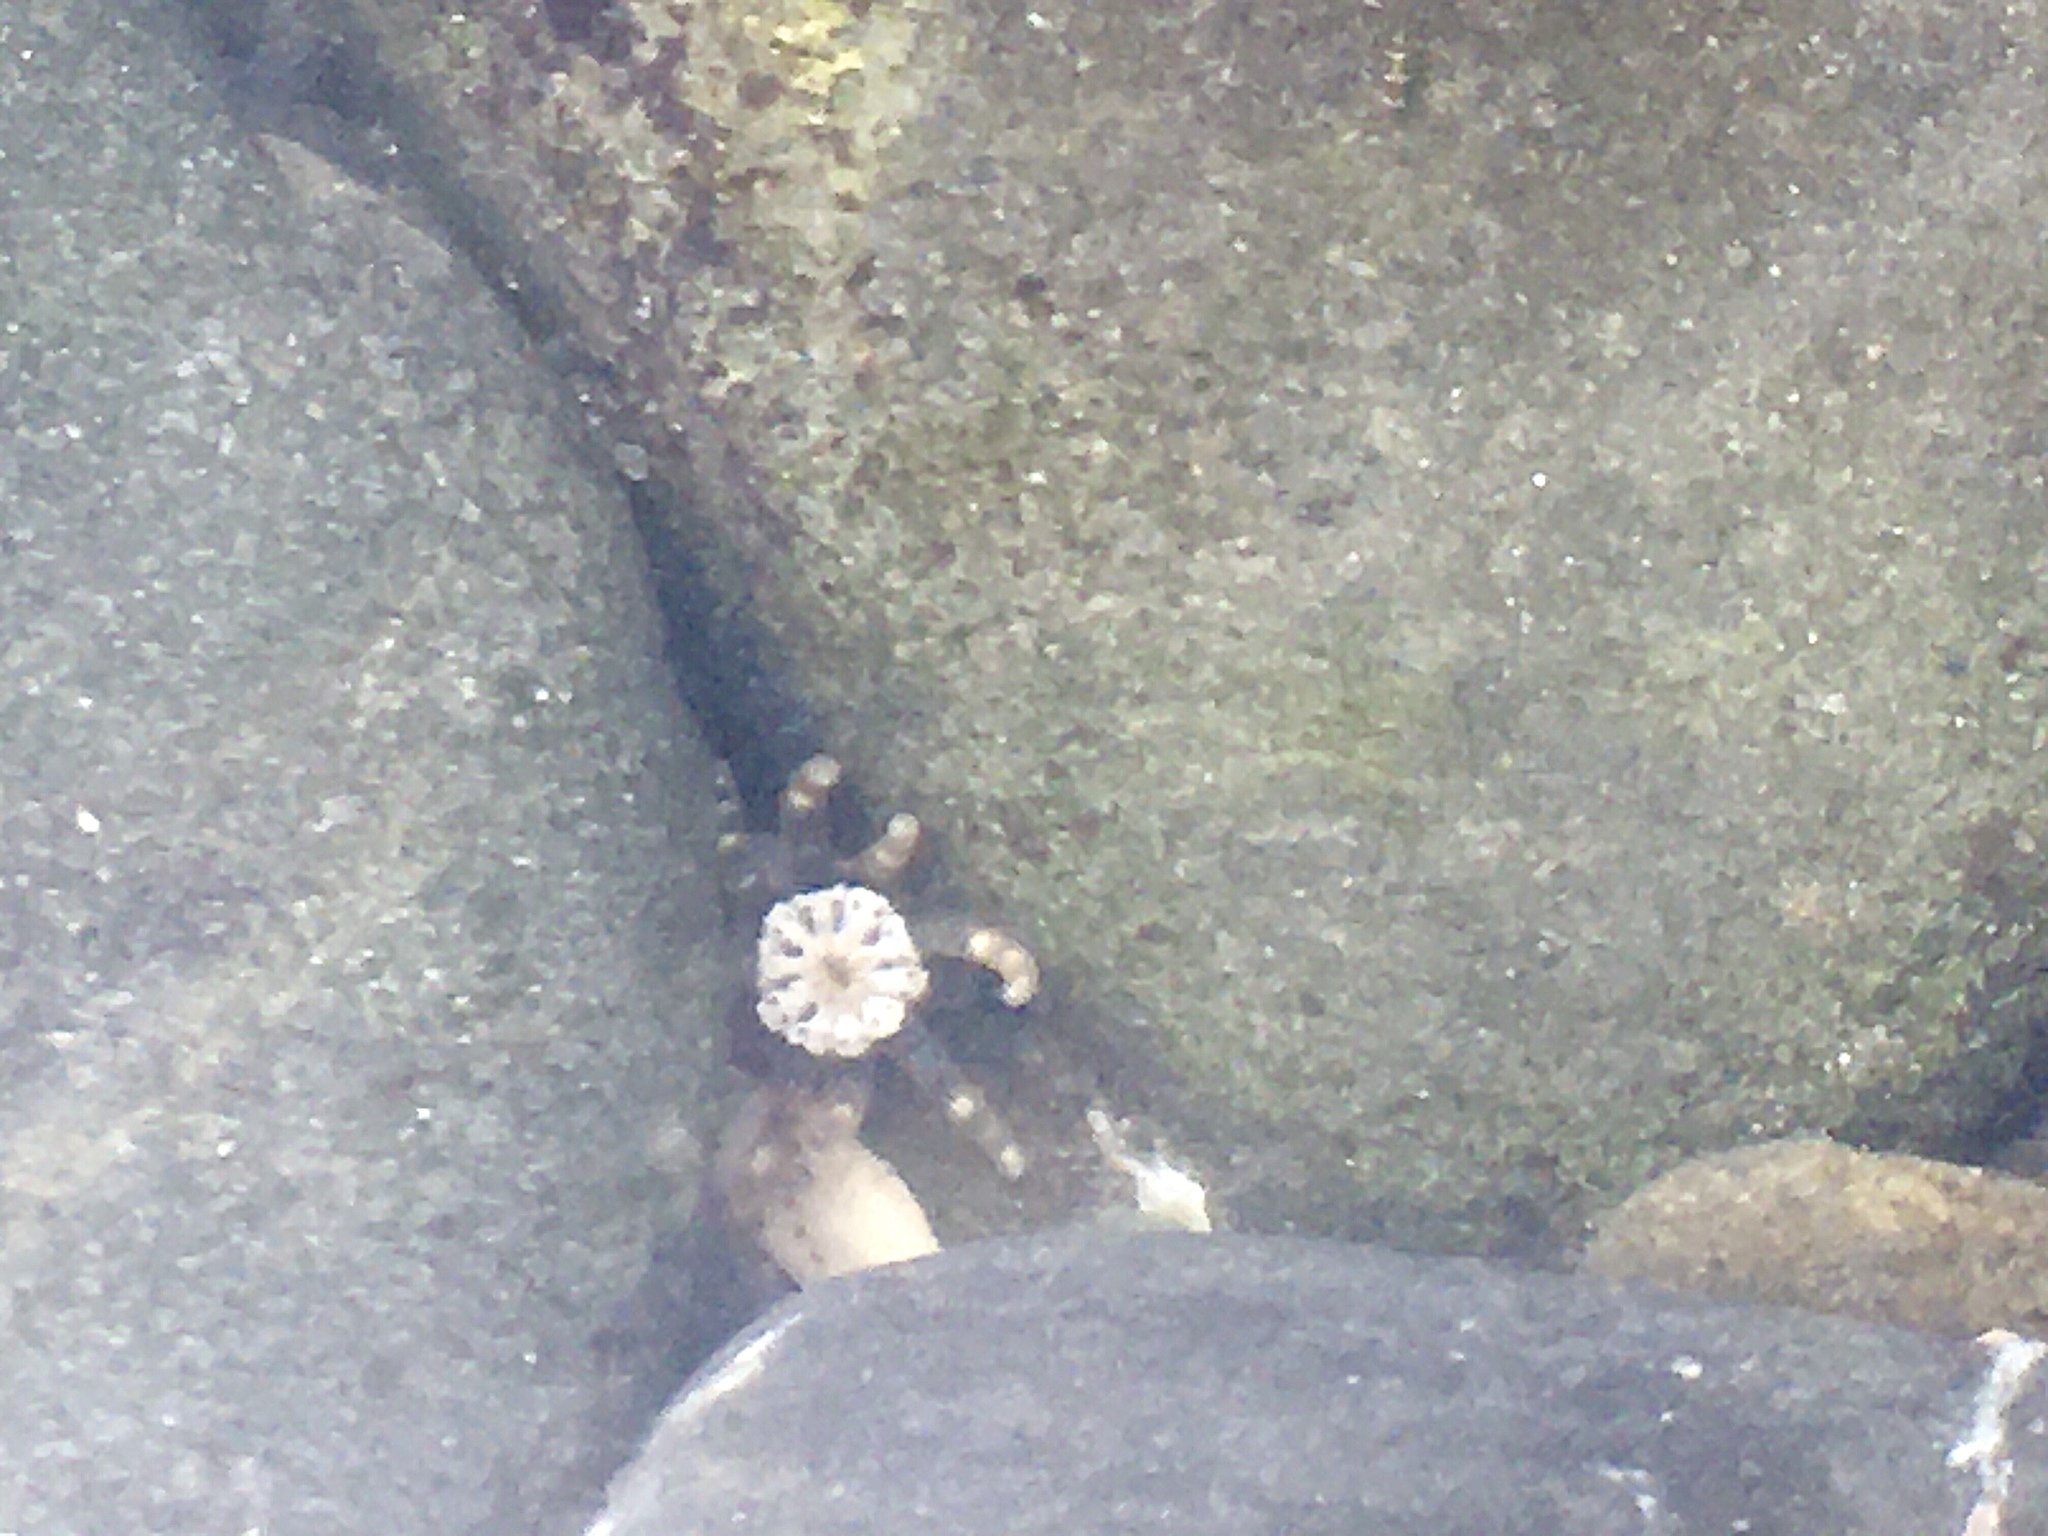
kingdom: Animalia
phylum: Cnidaria
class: Anthozoa
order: Actiniaria
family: Halcampidae
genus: Halcampa
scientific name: Halcampa decemtentaculata
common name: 10-tentacle burrowing anemone
